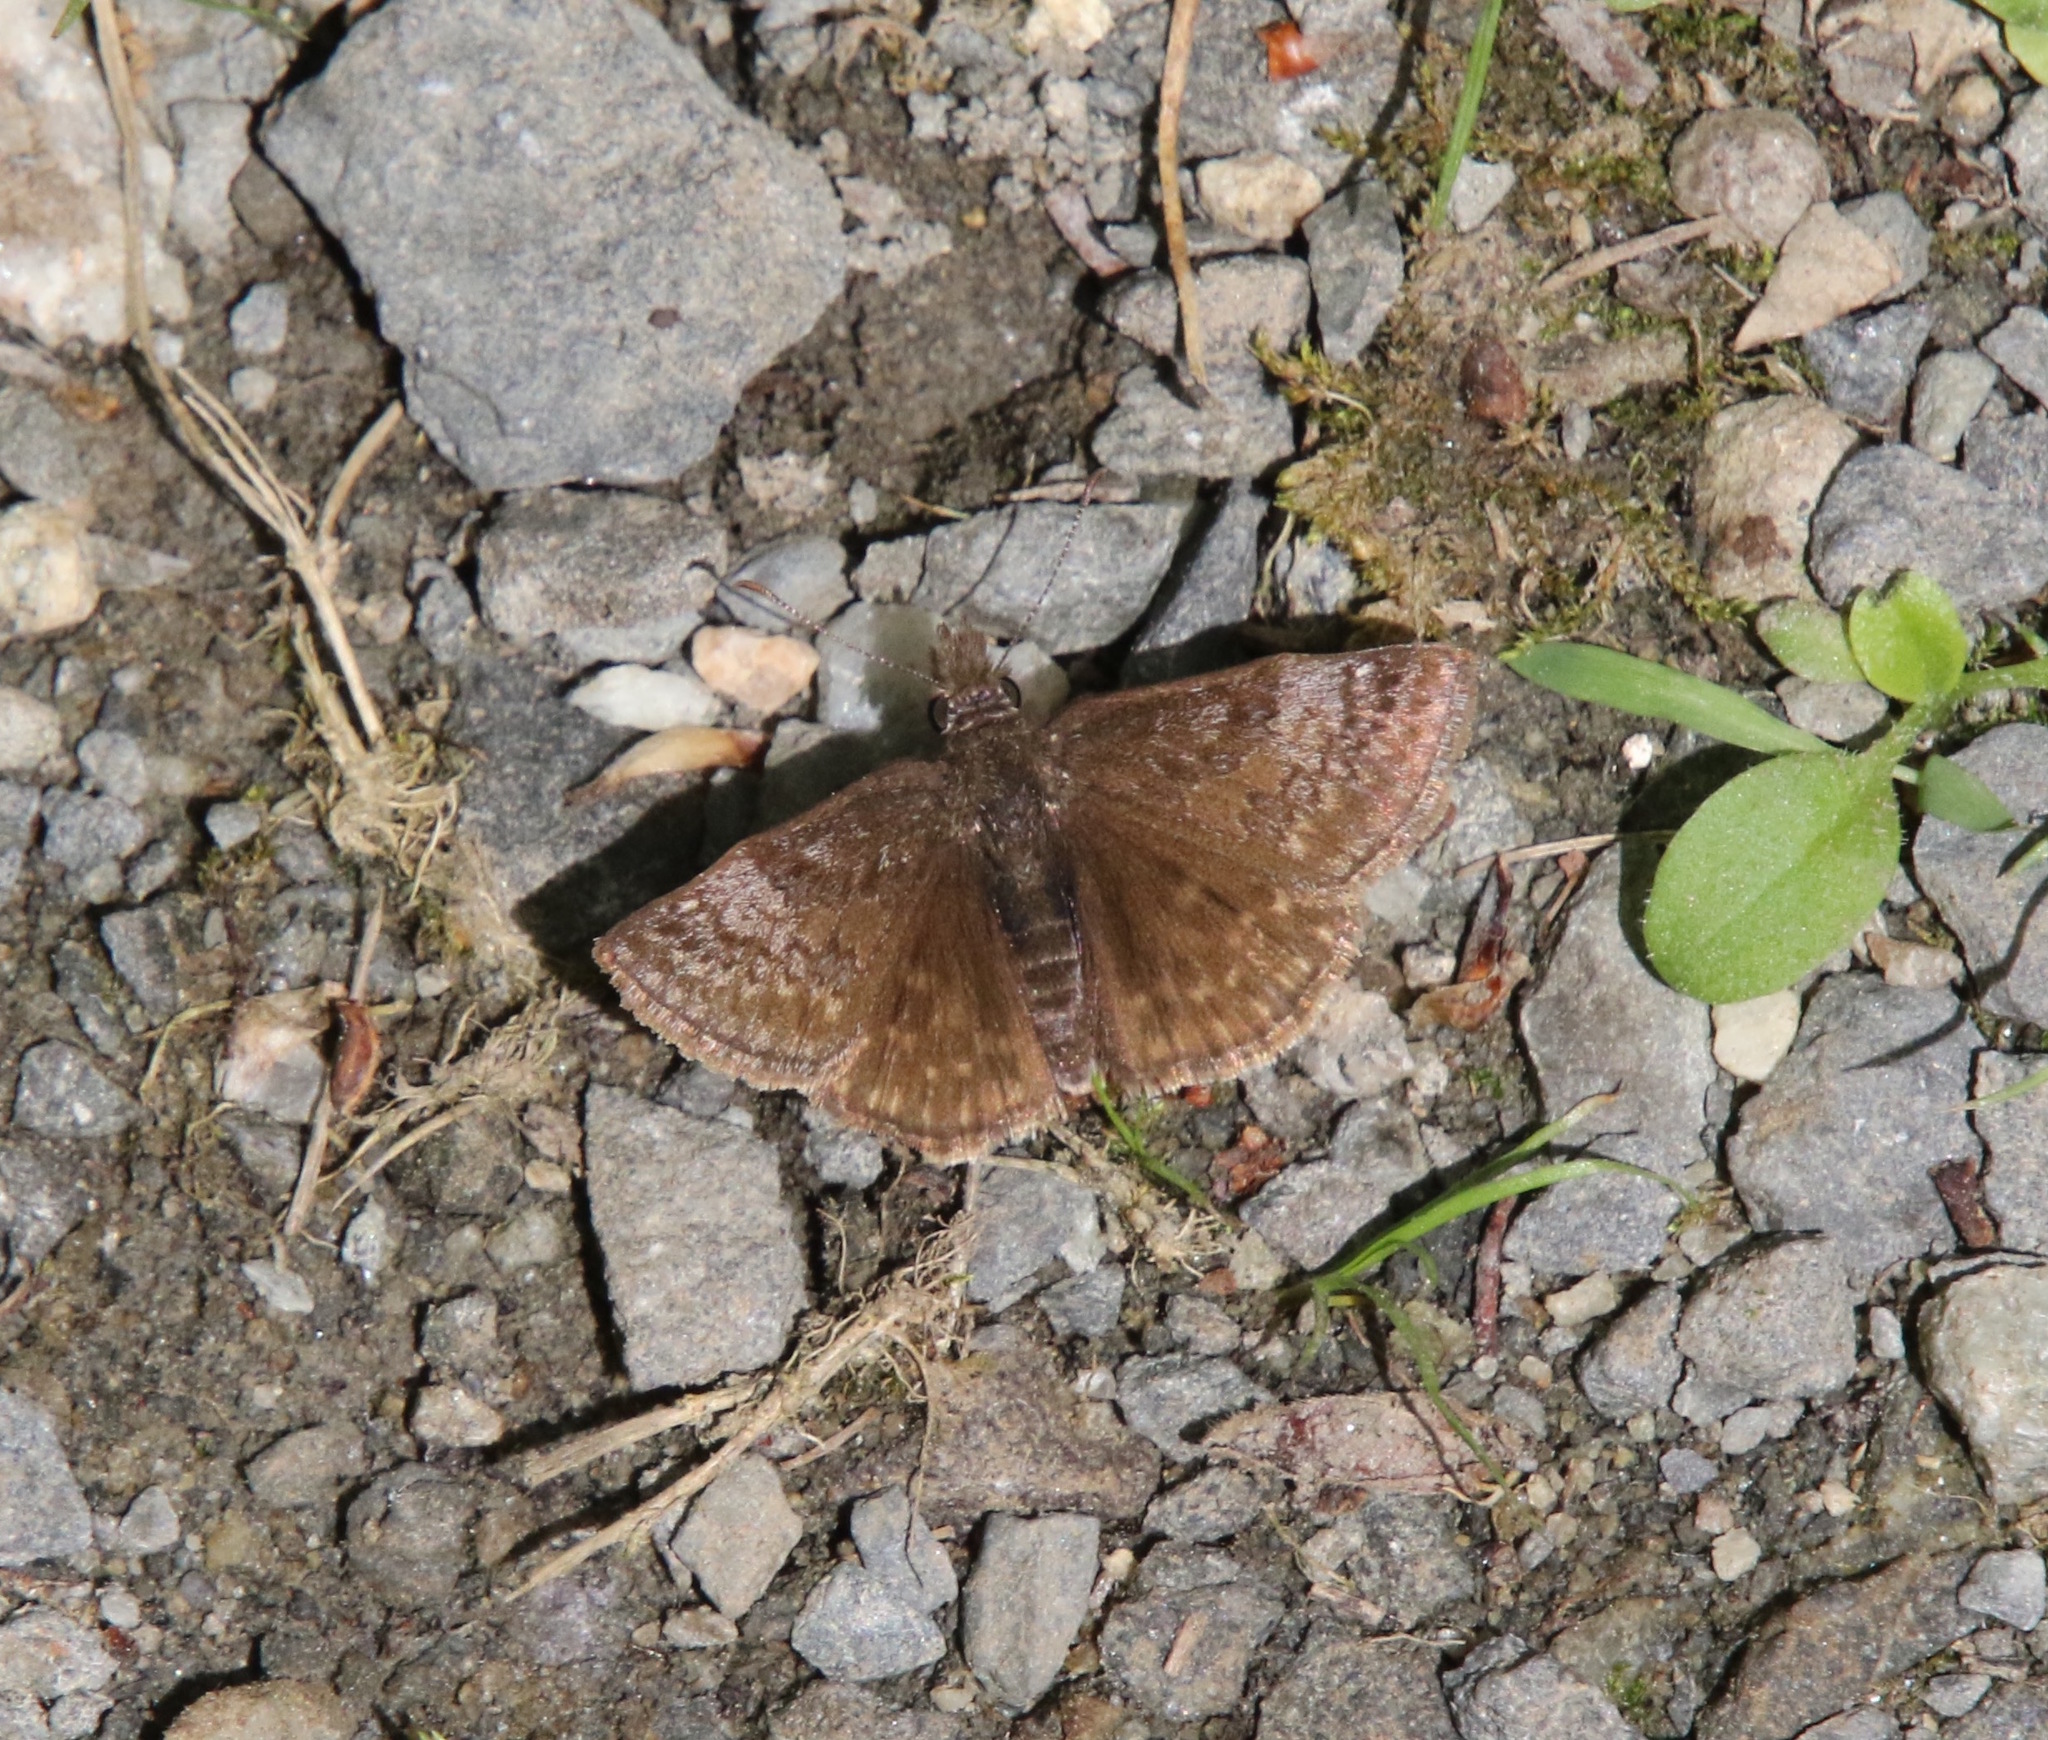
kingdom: Animalia
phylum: Arthropoda
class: Insecta
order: Lepidoptera
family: Hesperiidae
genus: Erynnis
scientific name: Erynnis icelus
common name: Dreamy duskywing
